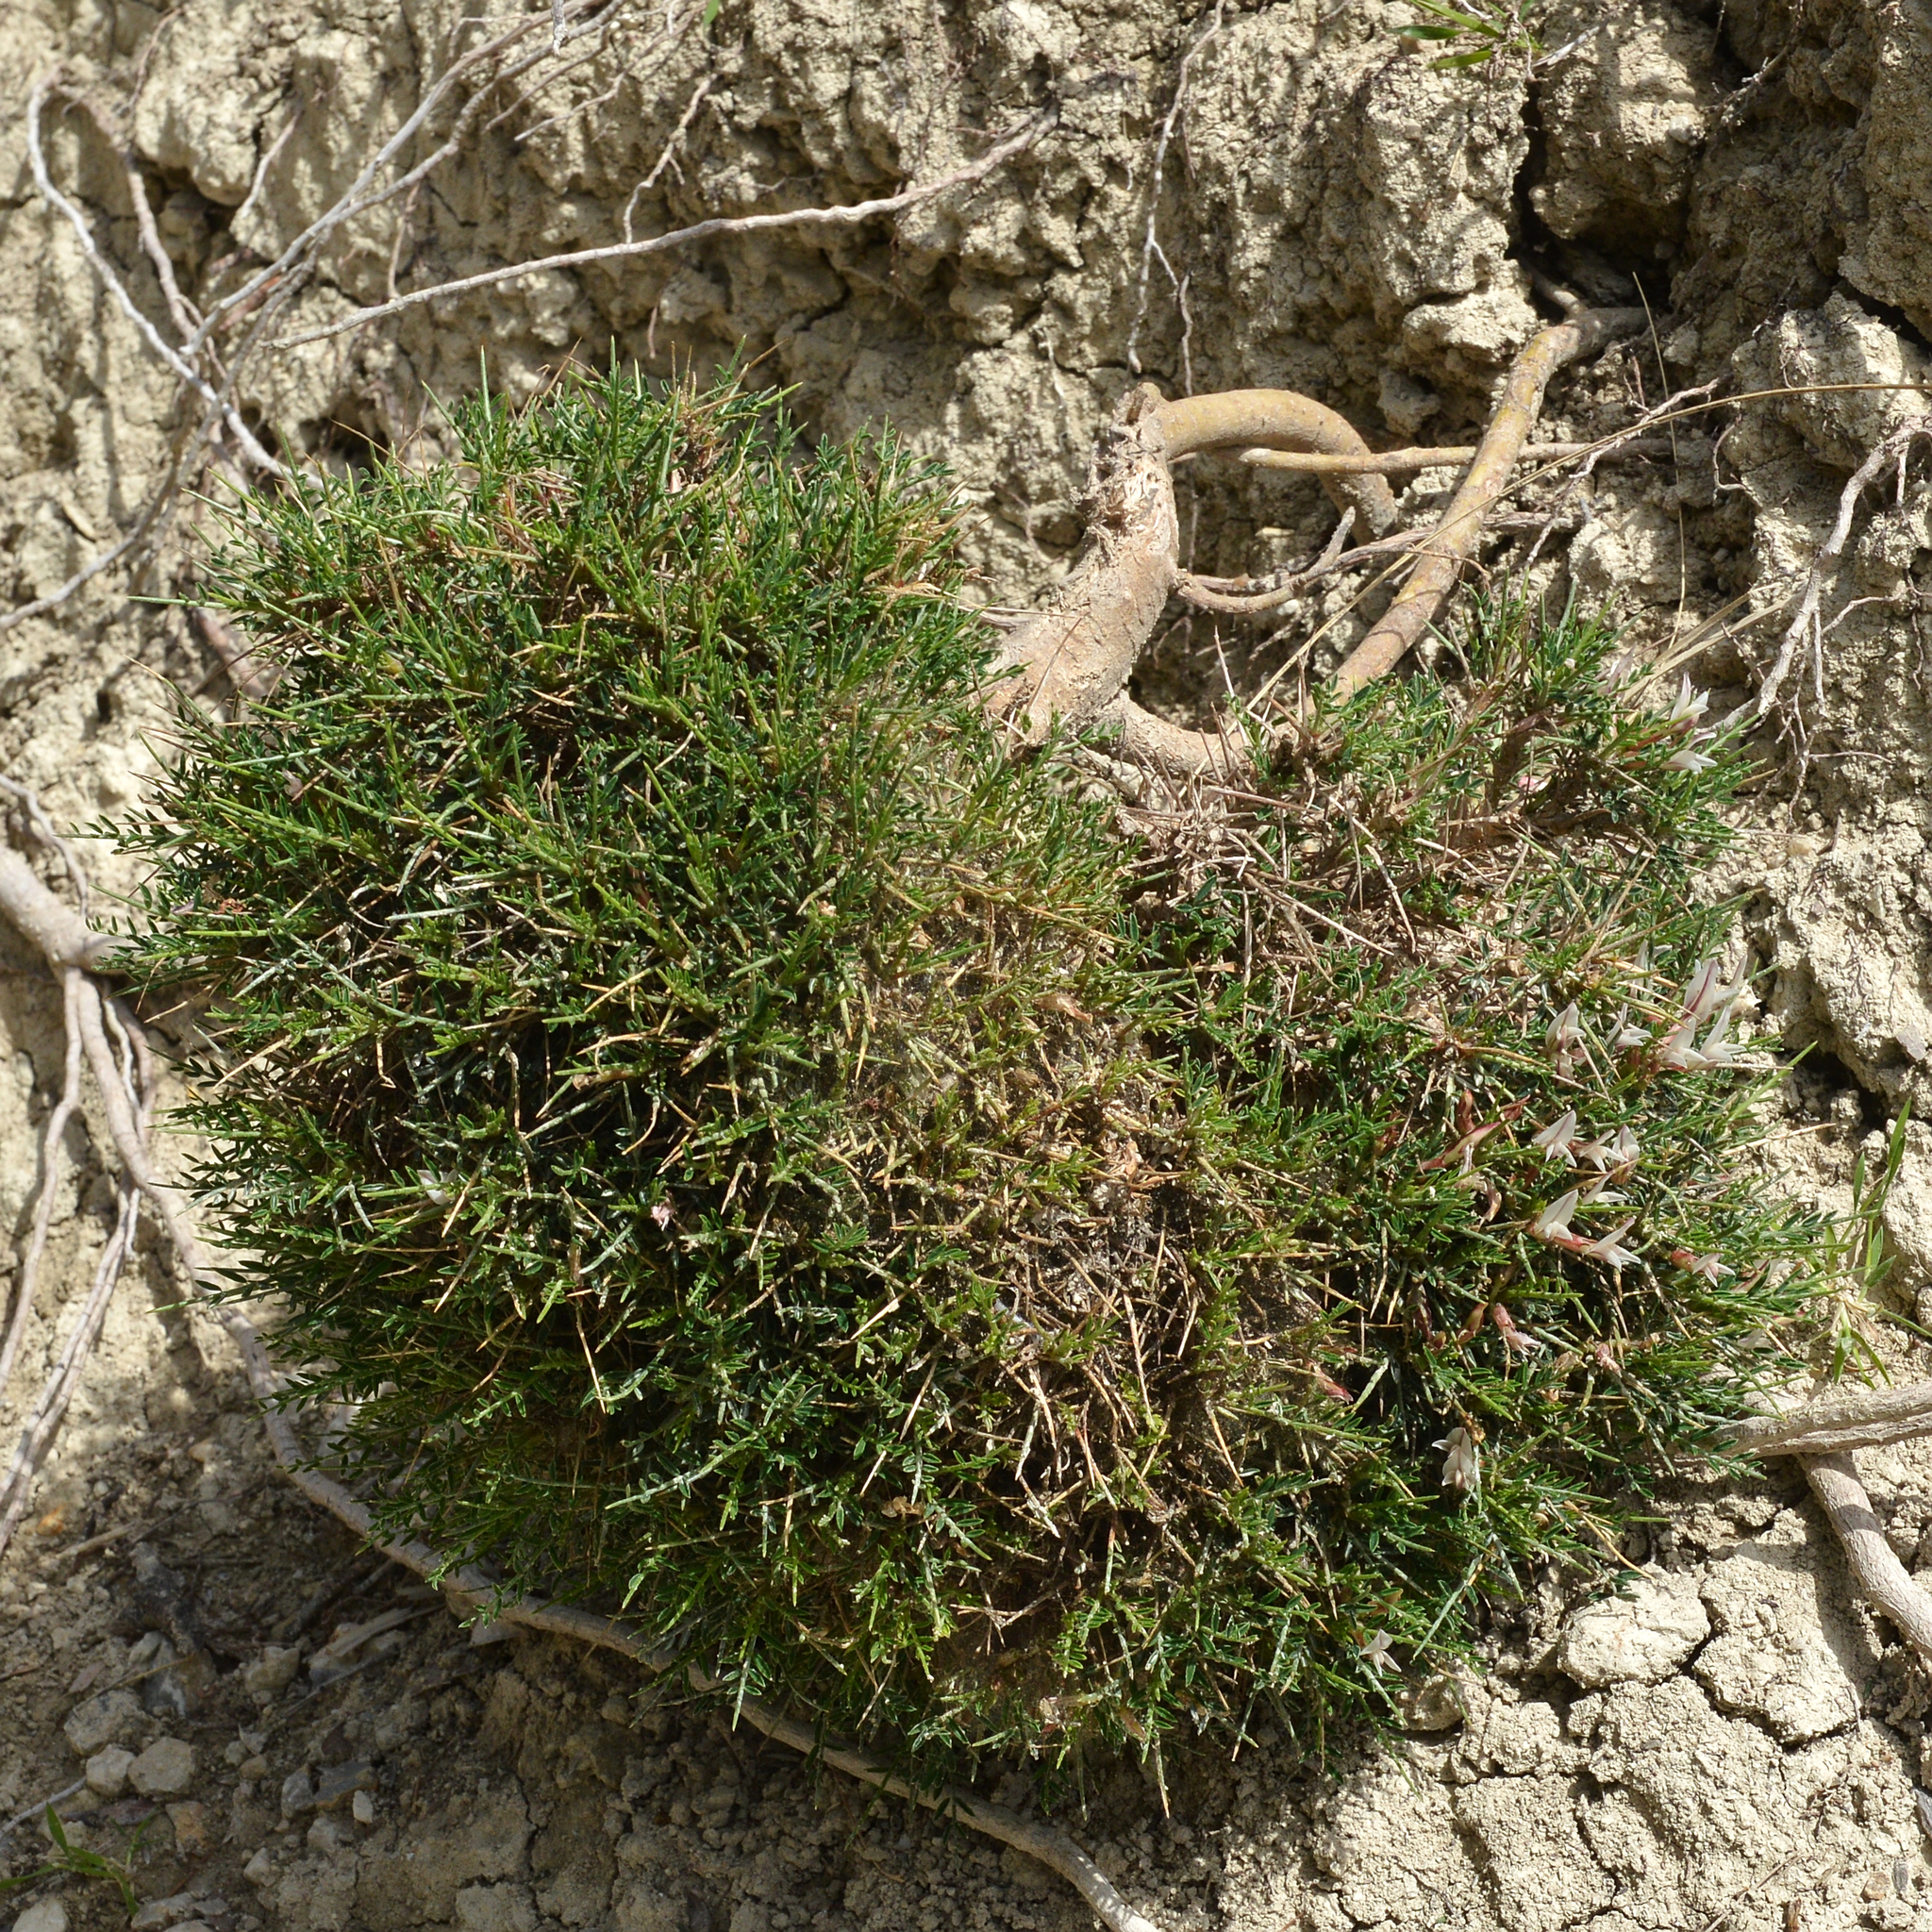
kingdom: Plantae
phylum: Tracheophyta
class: Magnoliopsida
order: Fabales
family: Fabaceae
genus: Astragalus
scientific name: Astragalus balearicus
